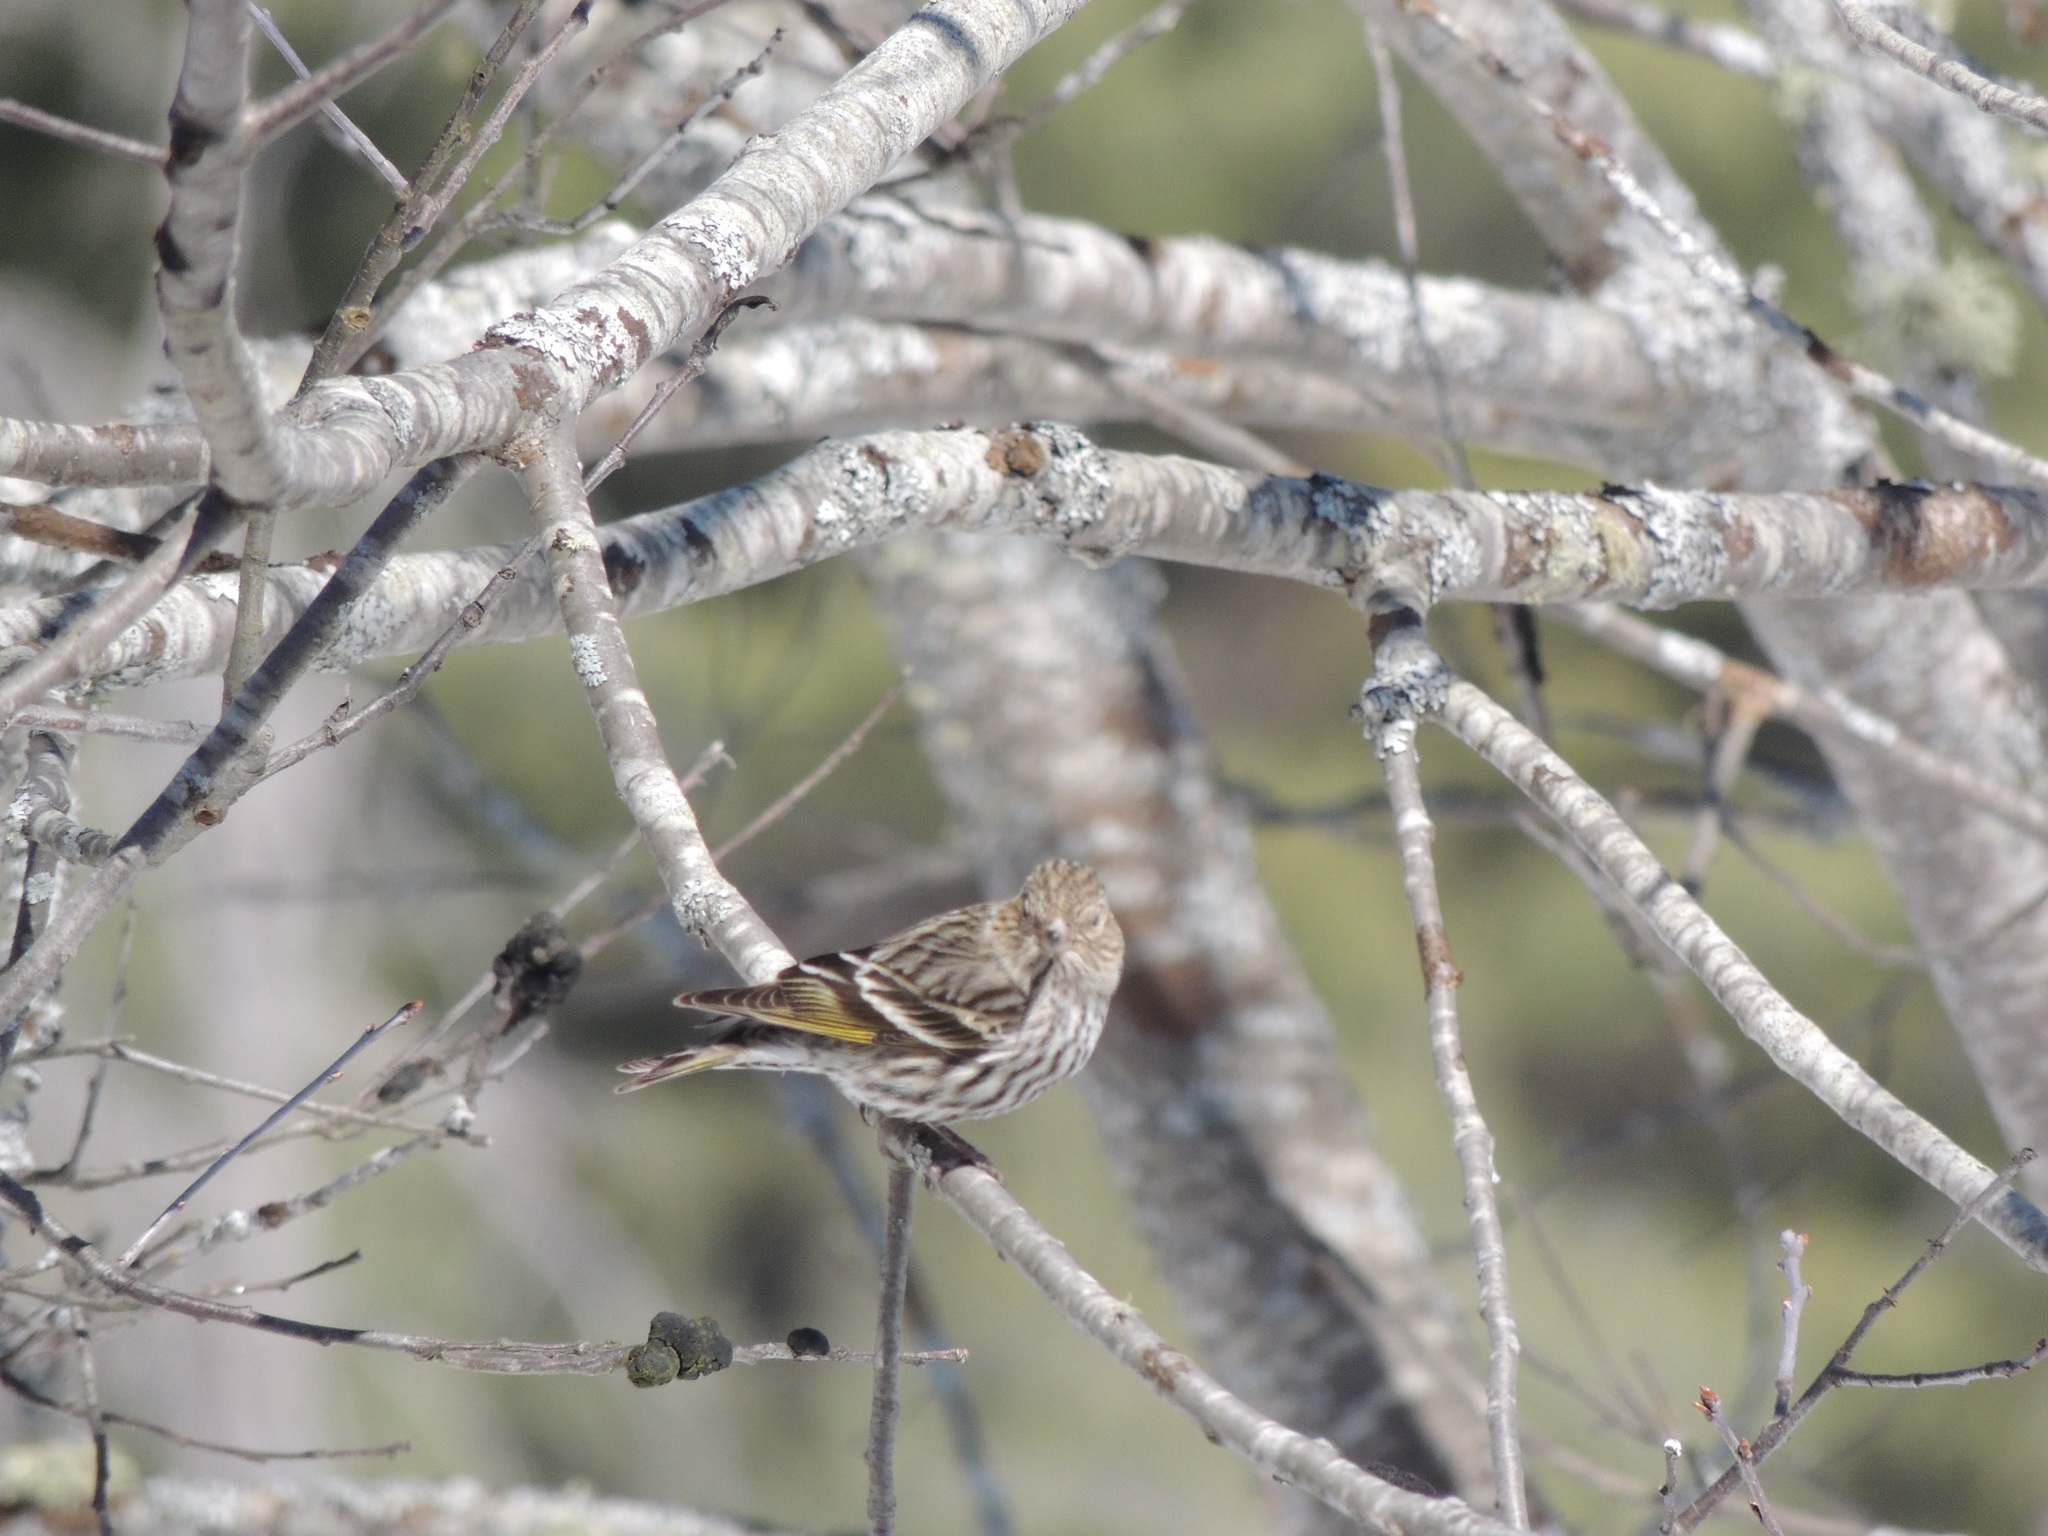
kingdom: Animalia
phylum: Chordata
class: Aves
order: Passeriformes
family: Fringillidae
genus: Spinus
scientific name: Spinus pinus
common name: Pine siskin
